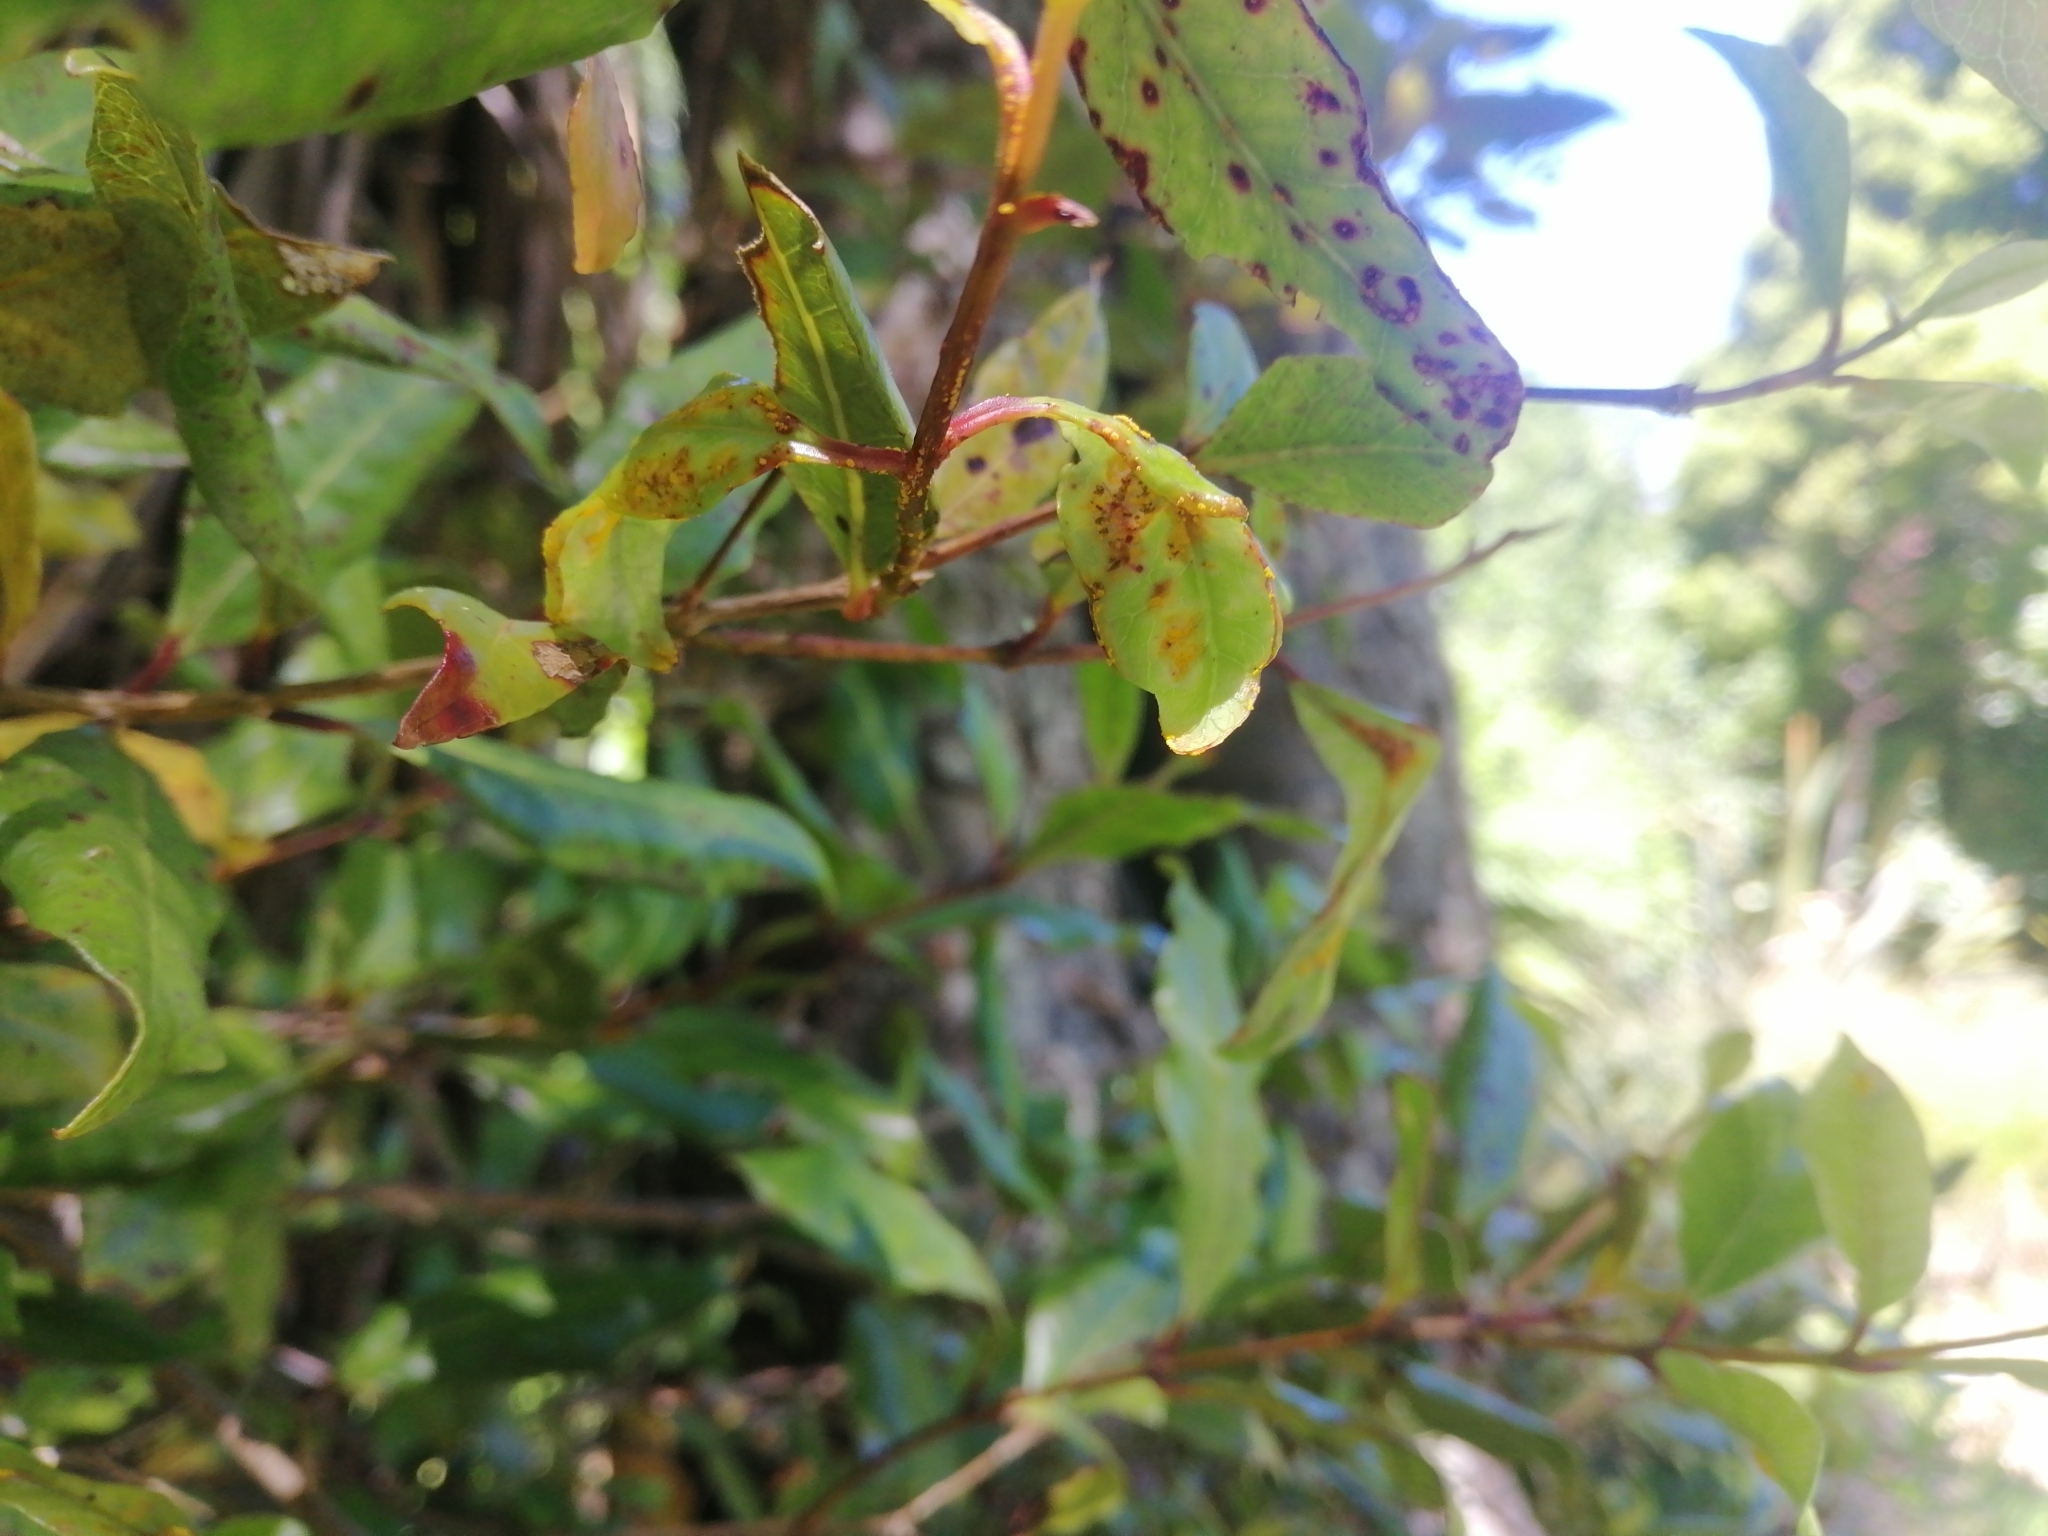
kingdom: Fungi
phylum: Basidiomycota
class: Pucciniomycetes
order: Pucciniales
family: Sphaerophragmiaceae
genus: Austropuccinia
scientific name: Austropuccinia psidii
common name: Myrtle rust
